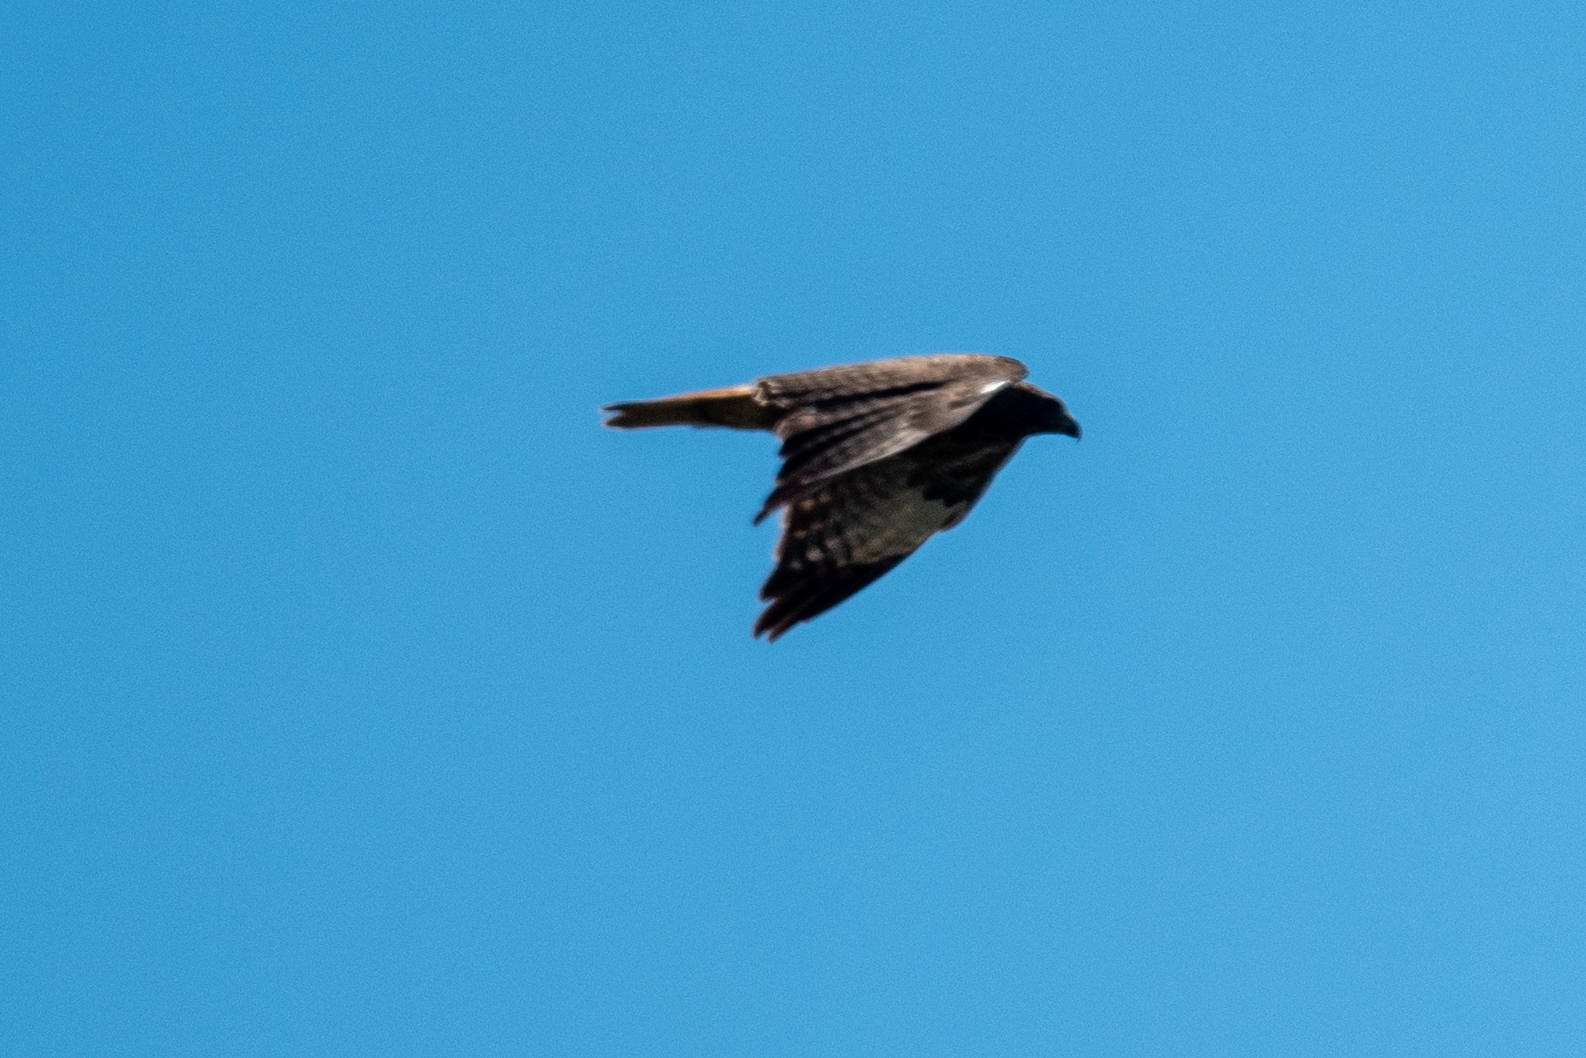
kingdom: Animalia
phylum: Chordata
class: Aves
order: Accipitriformes
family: Accipitridae
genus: Buteo
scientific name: Buteo jamaicensis
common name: Red-tailed hawk
